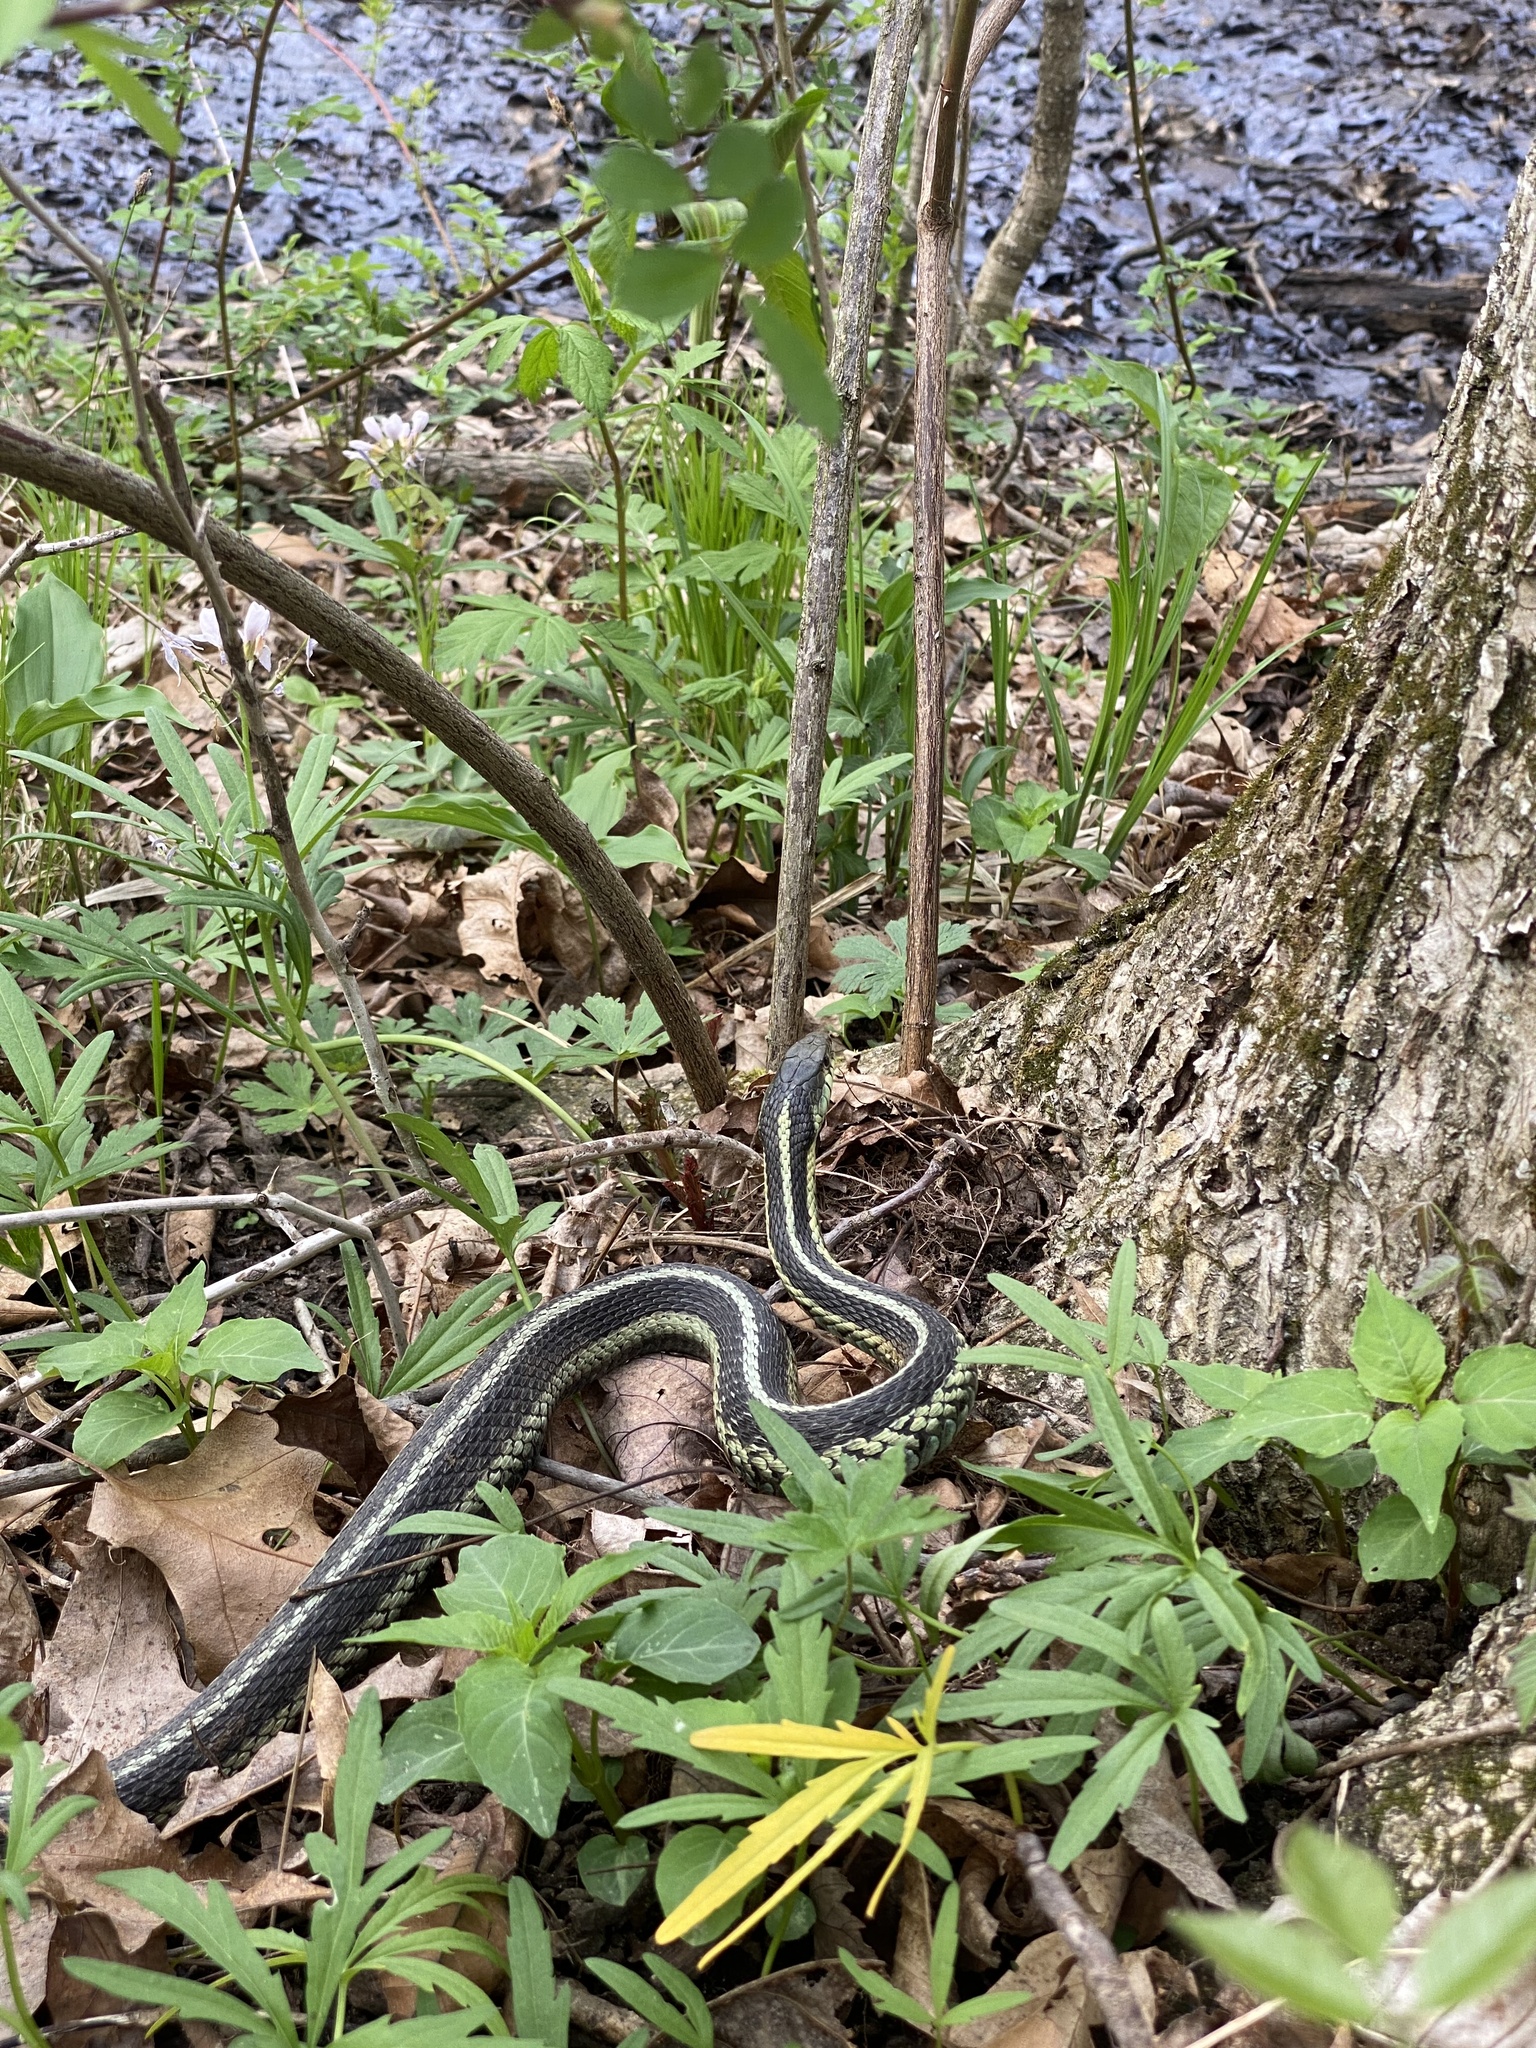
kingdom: Animalia
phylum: Chordata
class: Squamata
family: Colubridae
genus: Thamnophis
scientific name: Thamnophis sirtalis
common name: Common garter snake
